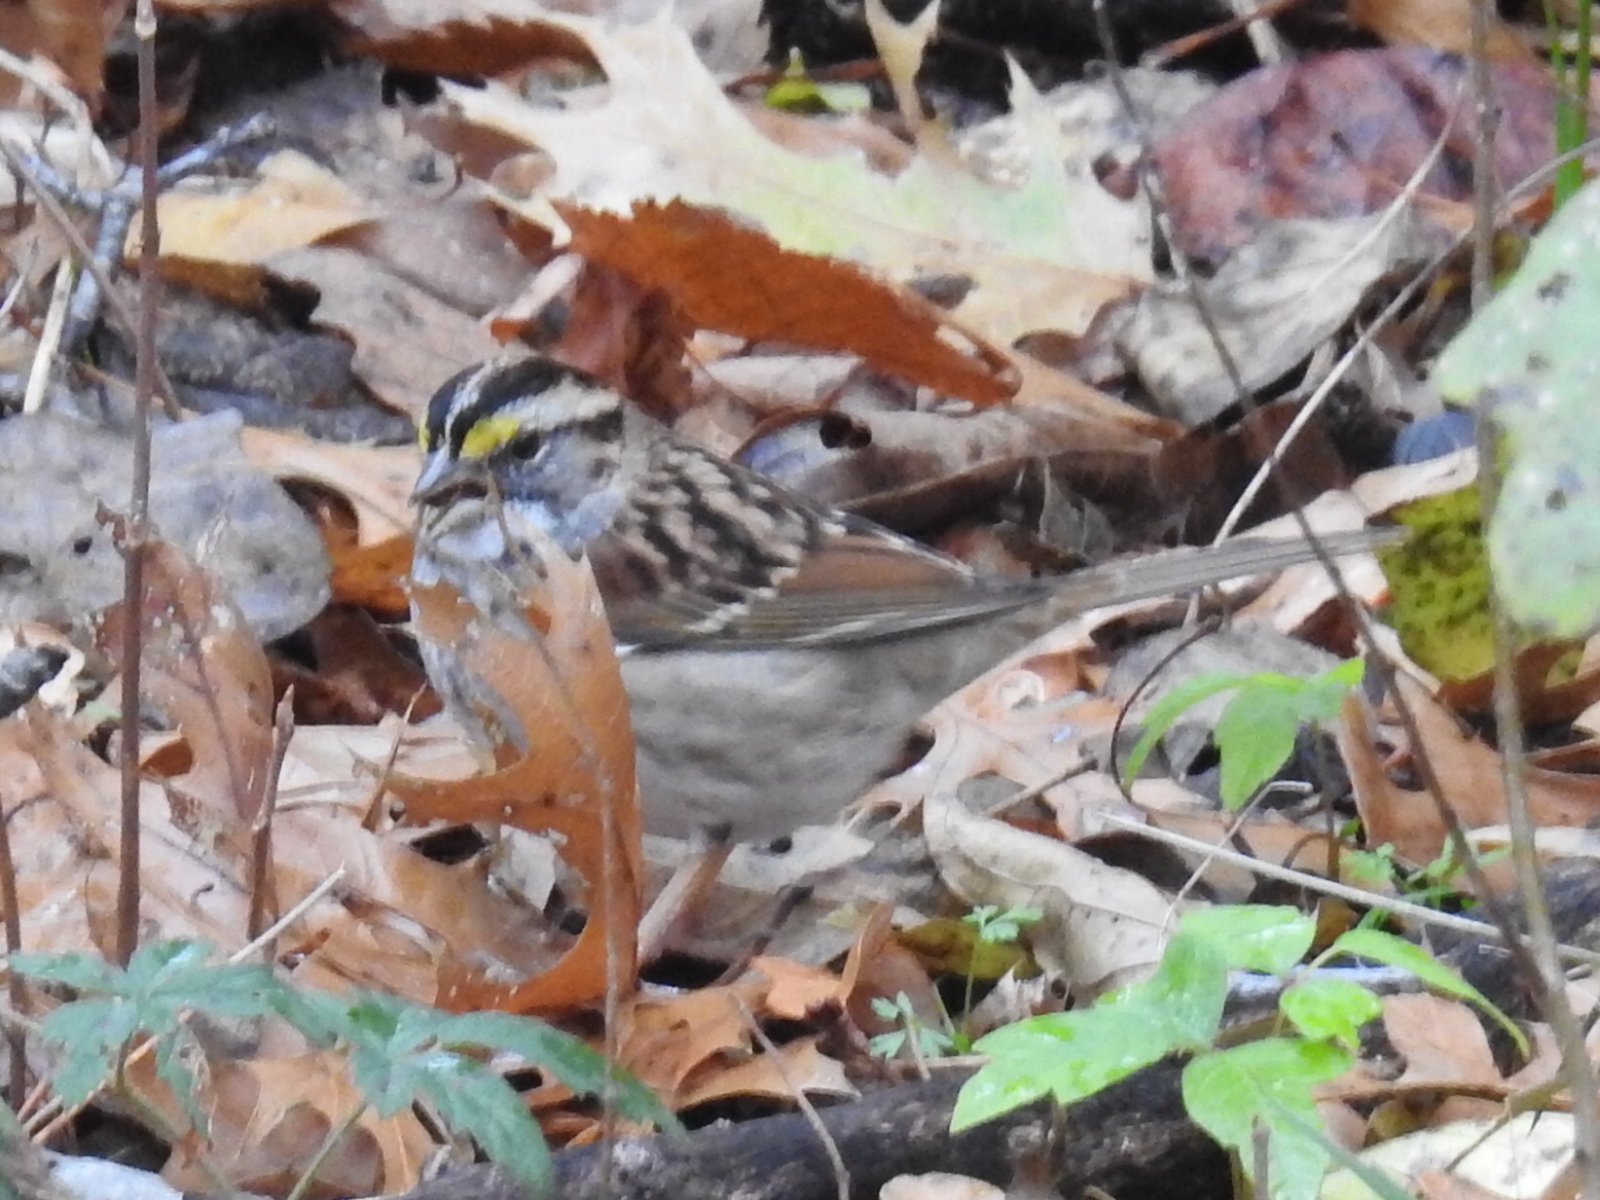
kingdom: Animalia
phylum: Chordata
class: Aves
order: Passeriformes
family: Passerellidae
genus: Zonotrichia
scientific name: Zonotrichia albicollis
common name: White-throated sparrow
